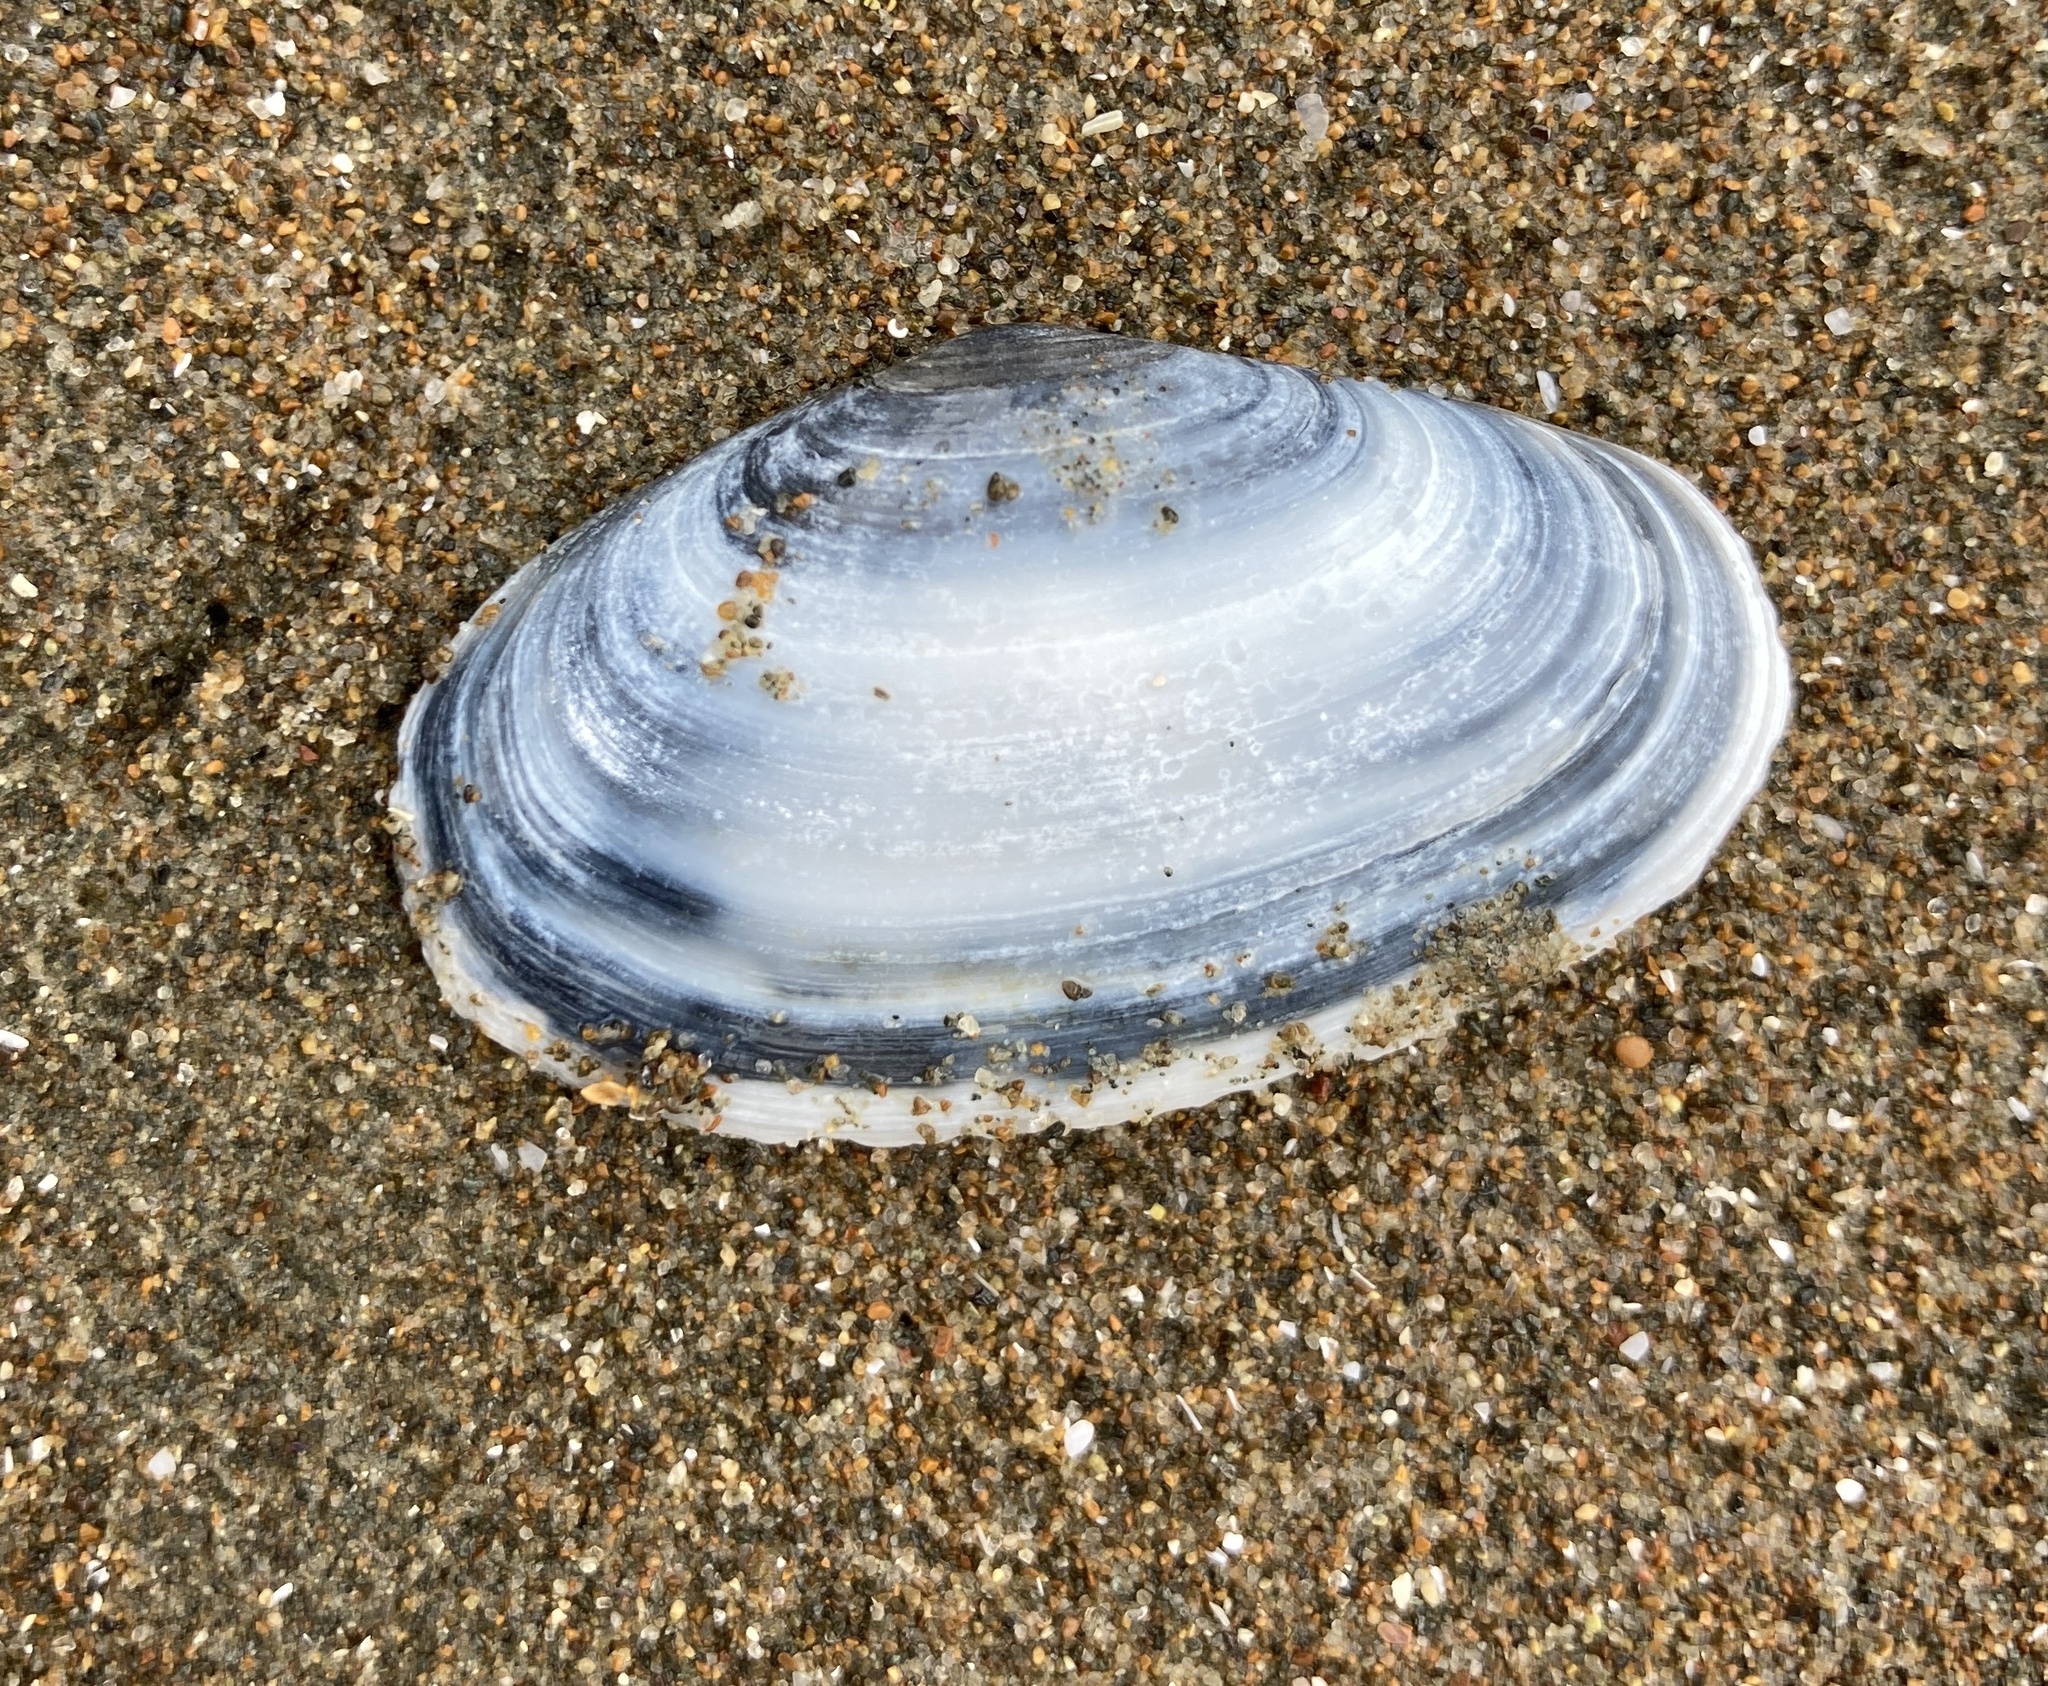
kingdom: Animalia
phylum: Mollusca
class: Bivalvia
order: Venerida
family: Mesodesmatidae
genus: Paphies
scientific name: Paphies australis
